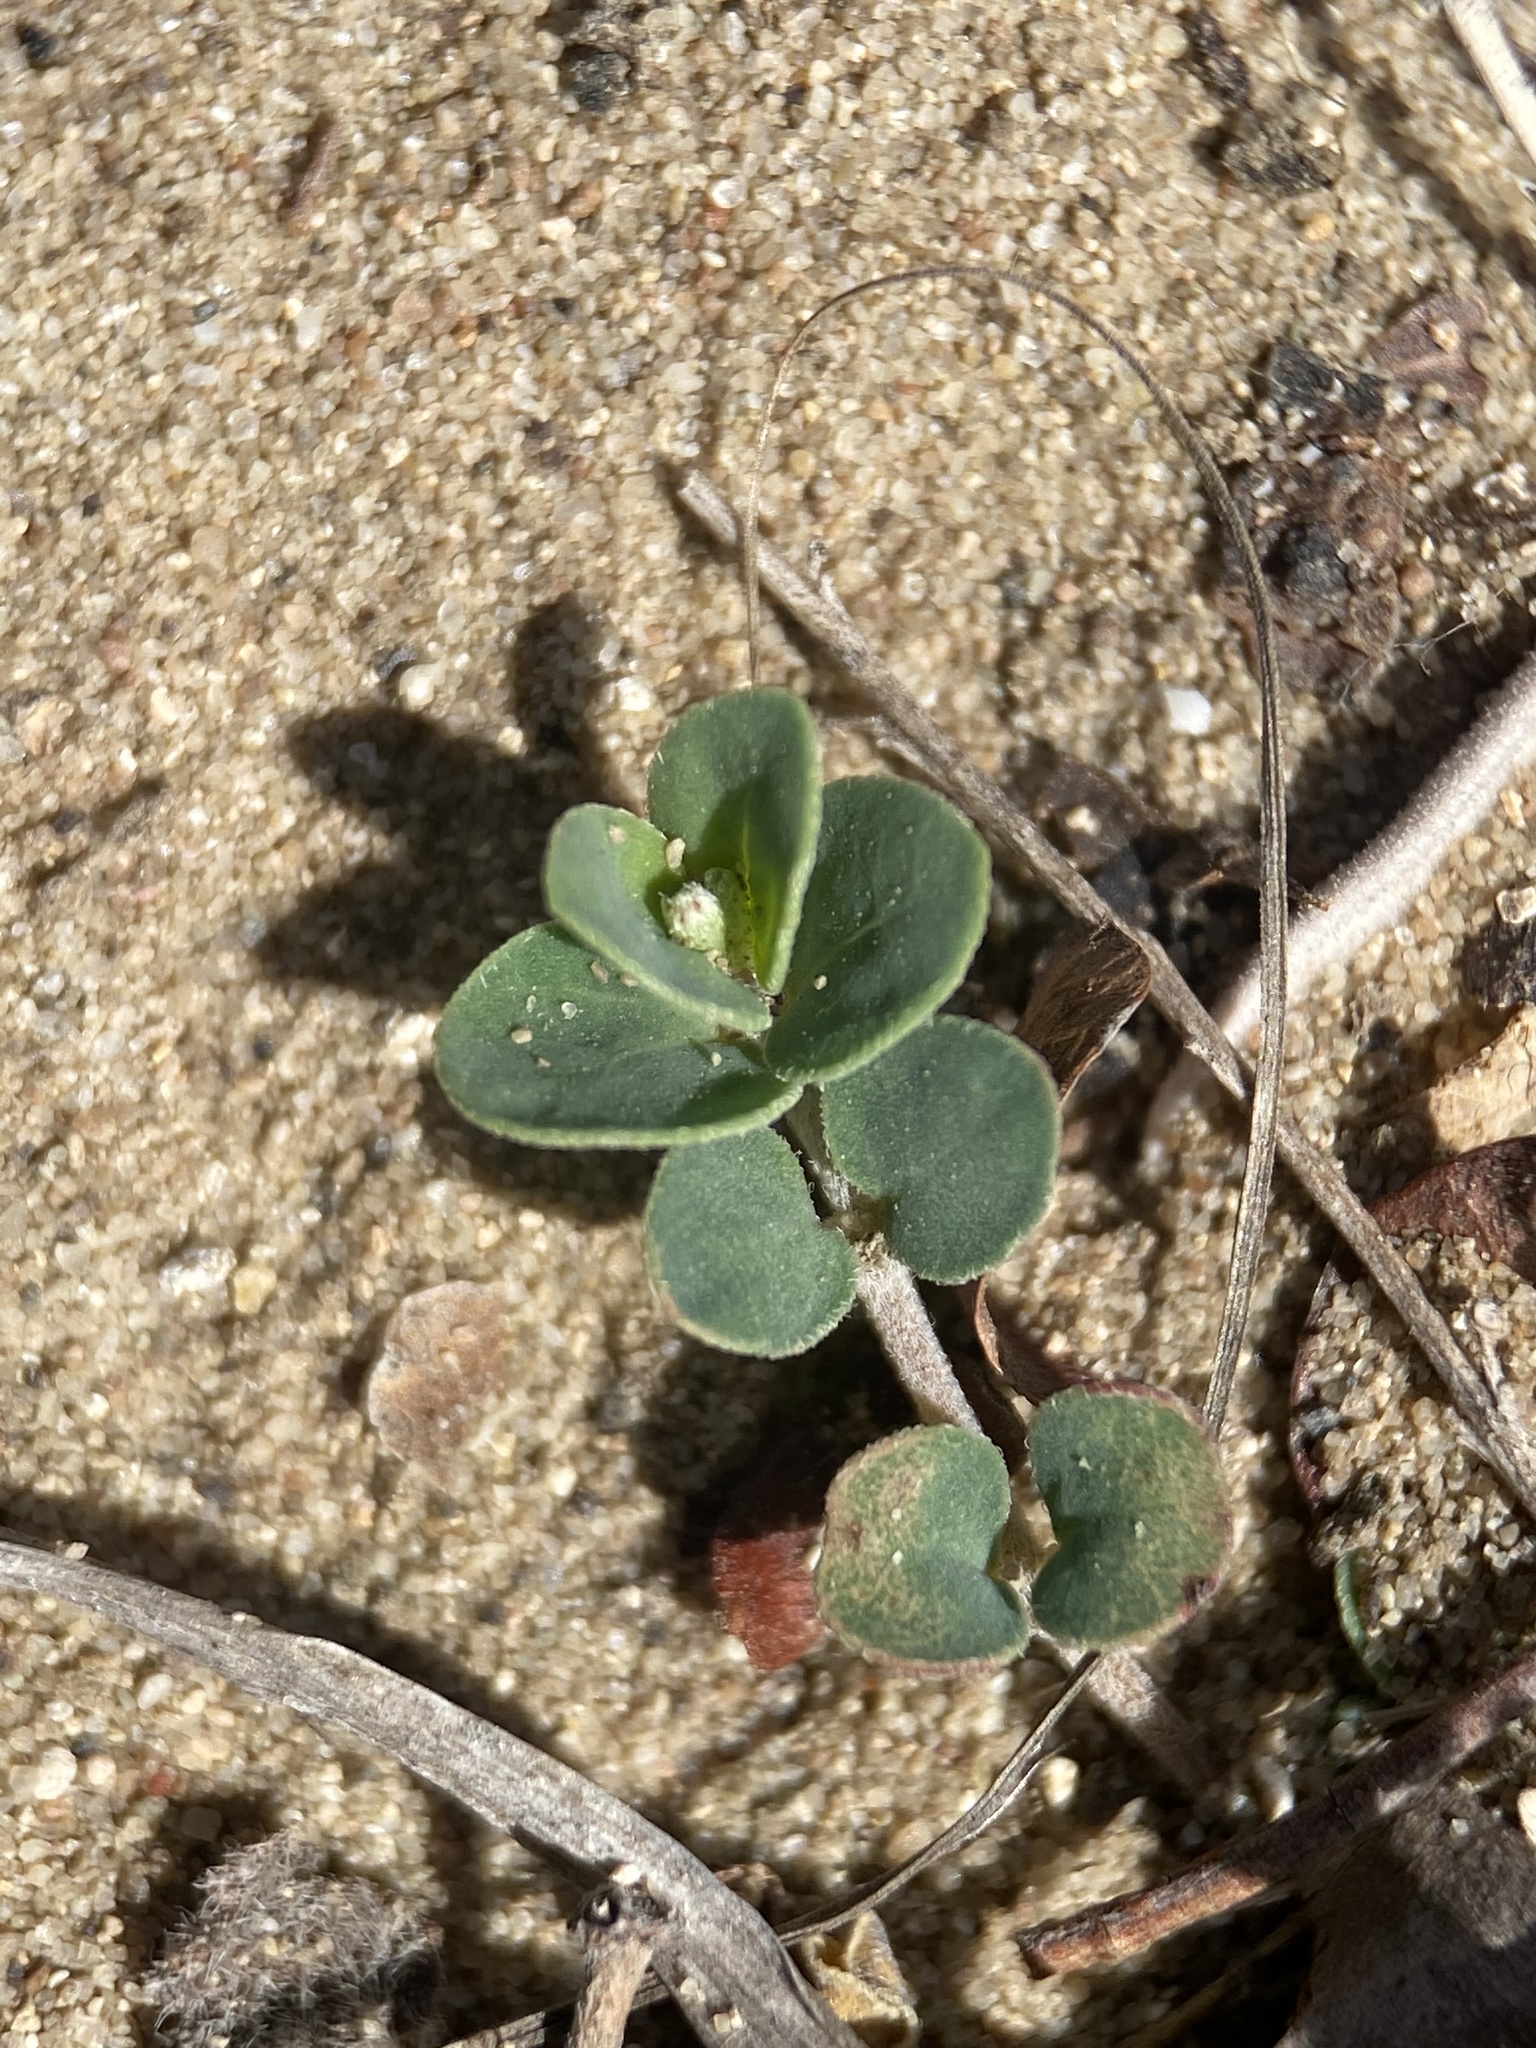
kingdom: Plantae
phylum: Tracheophyta
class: Magnoliopsida
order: Malpighiales
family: Euphorbiaceae
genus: Euphorbia
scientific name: Euphorbia cinerascens
